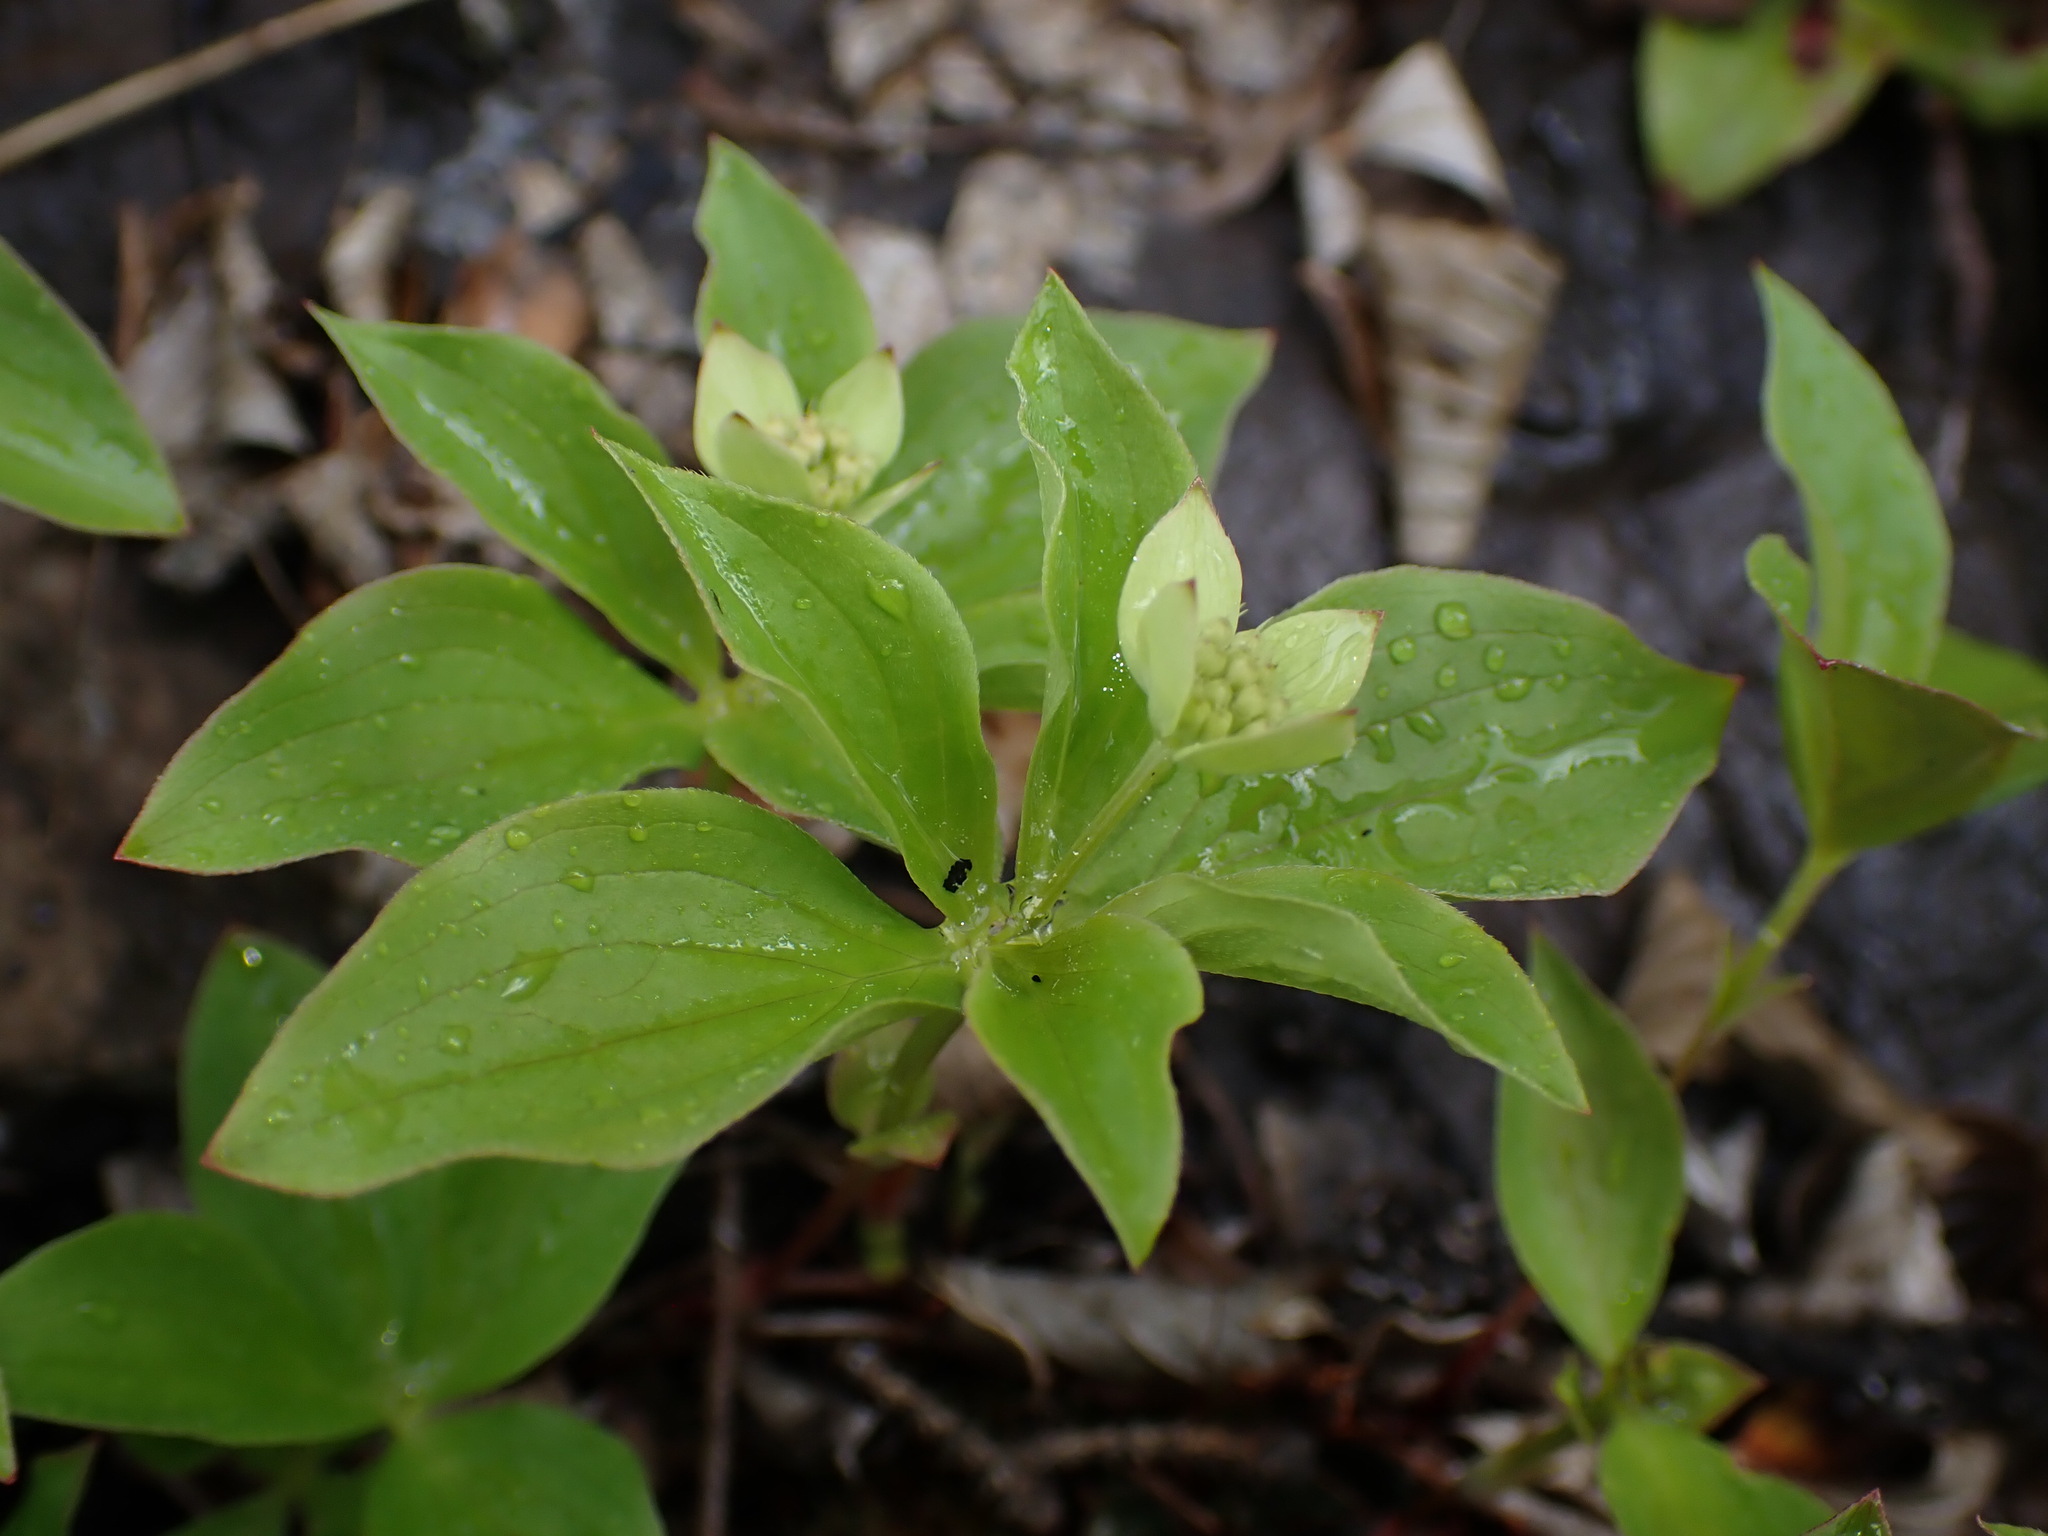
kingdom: Plantae
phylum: Tracheophyta
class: Magnoliopsida
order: Cornales
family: Cornaceae
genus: Cornus
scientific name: Cornus canadensis
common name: Creeping dogwood
